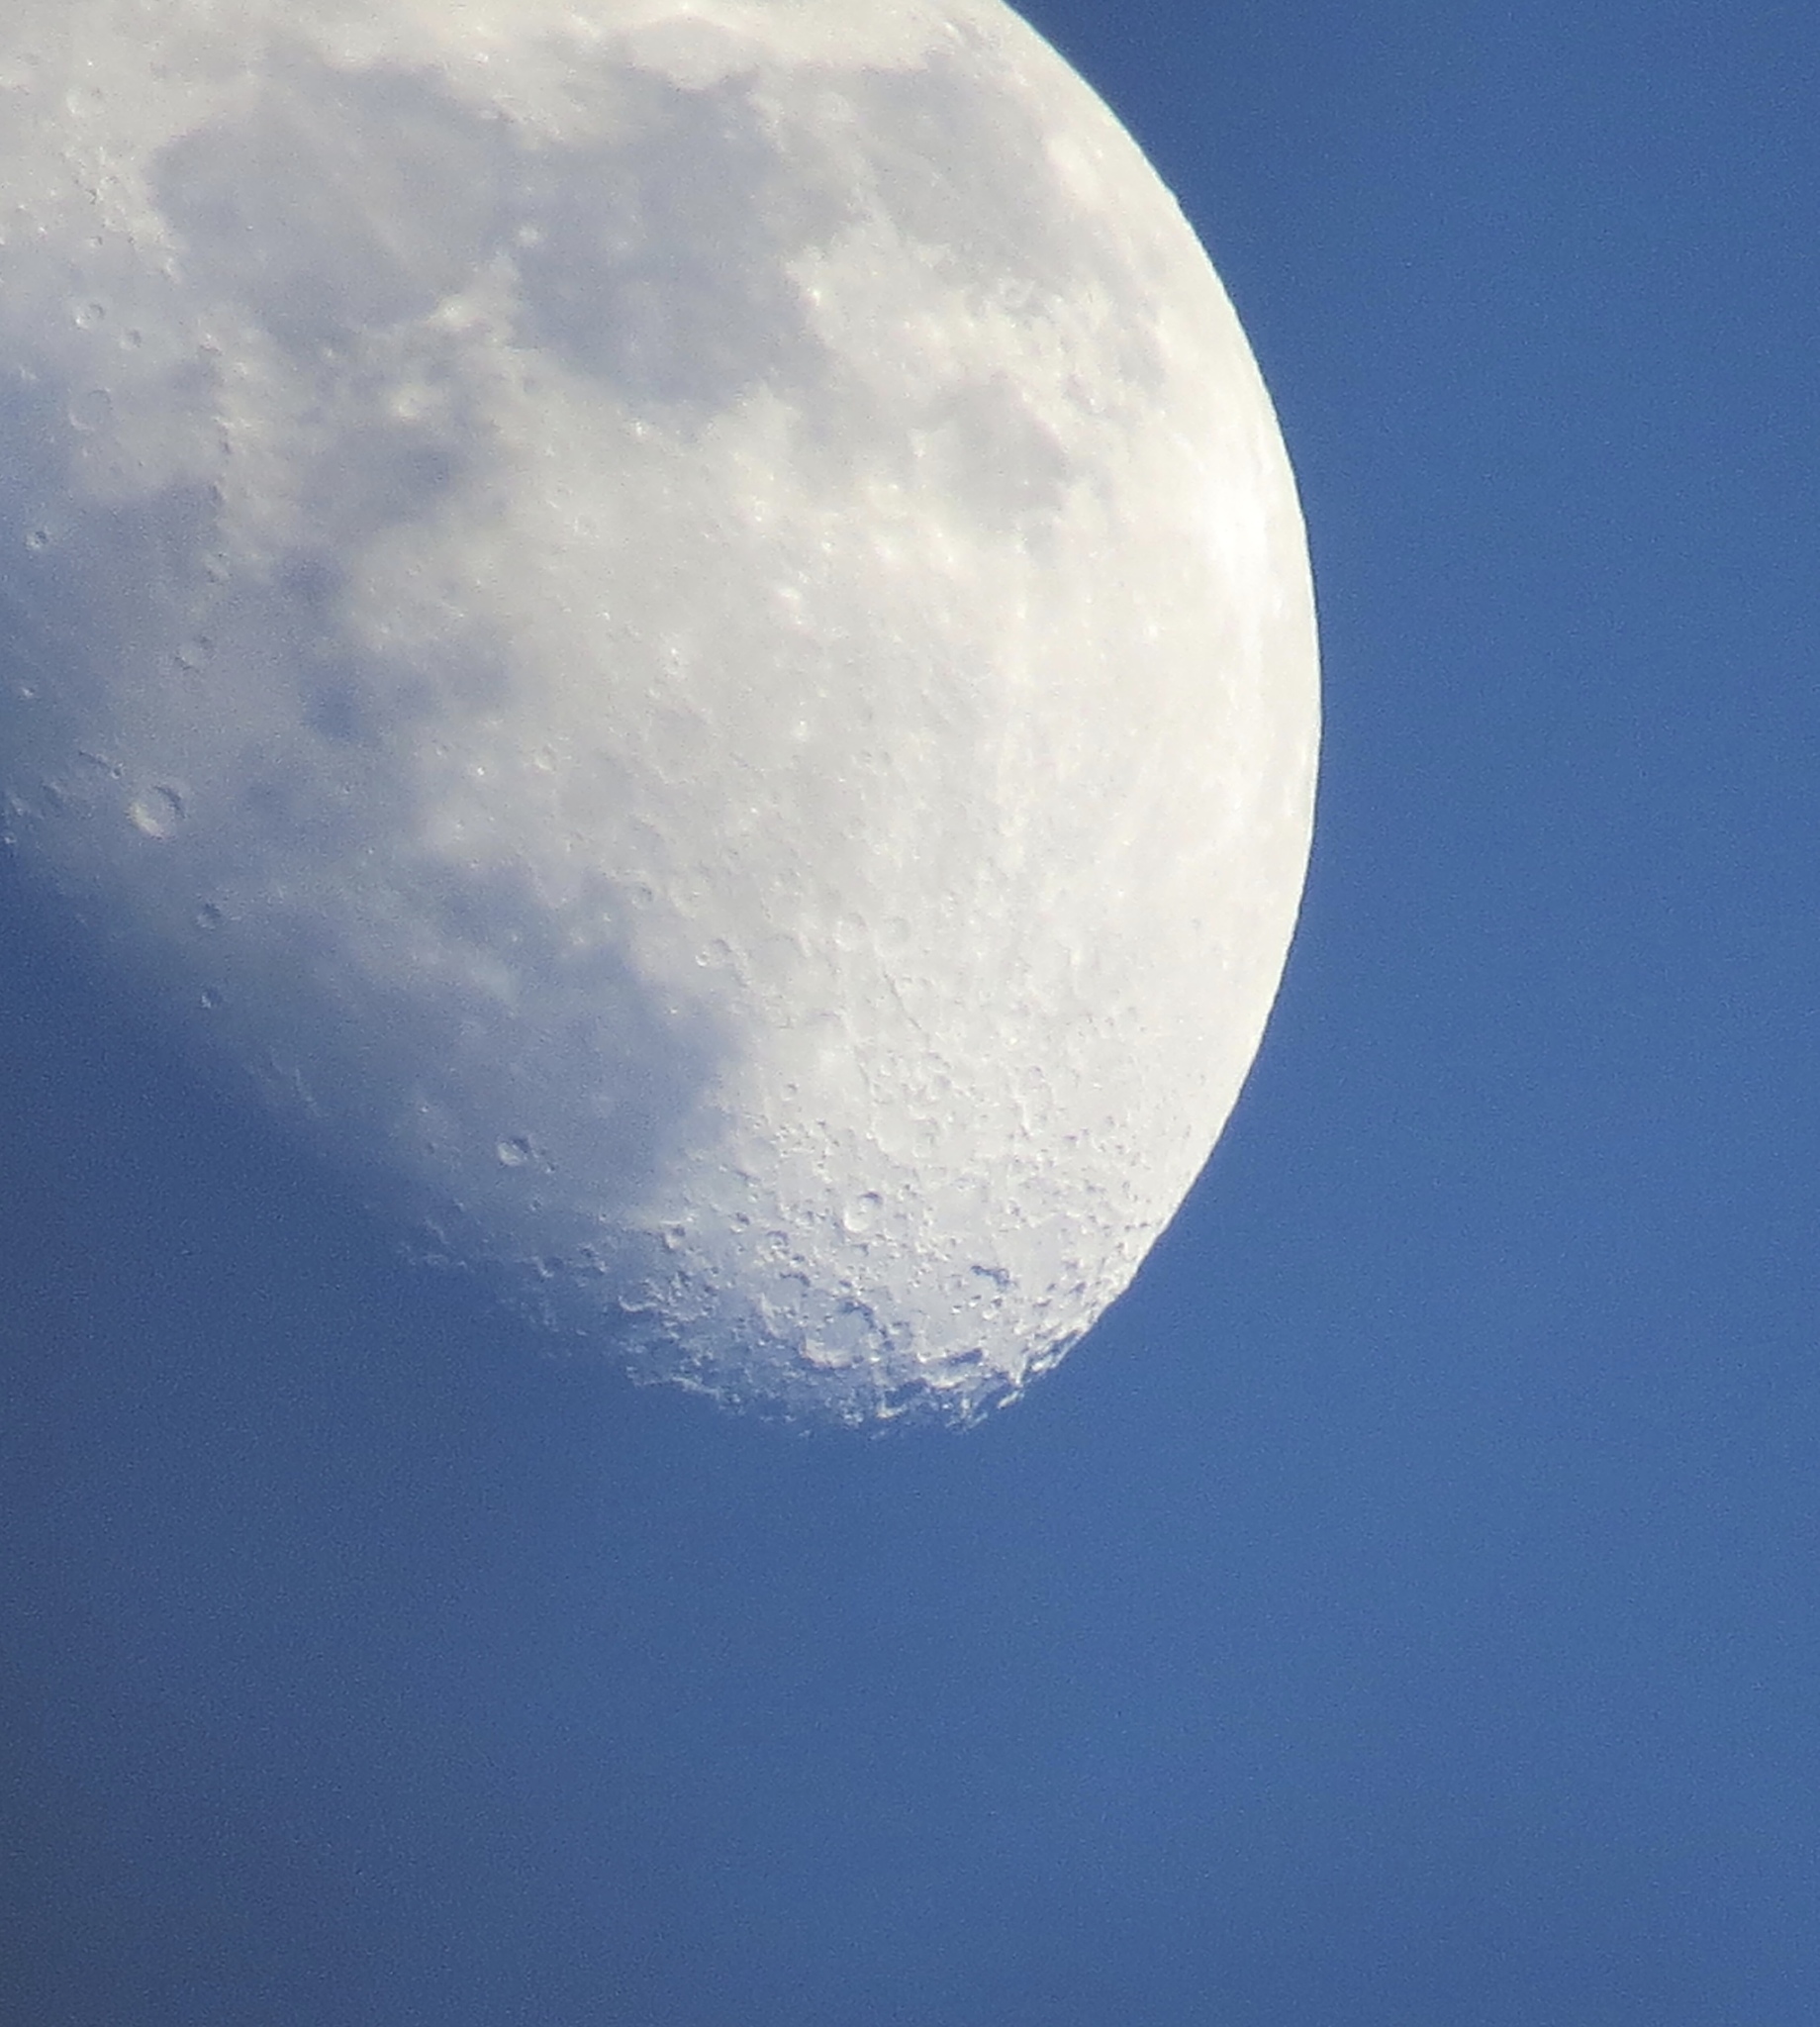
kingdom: Plantae
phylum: Tracheophyta
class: Magnoliopsida
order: Magnoliales
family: Magnoliaceae
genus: Liriodendron
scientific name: Liriodendron tulipifera
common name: Tulip tree
